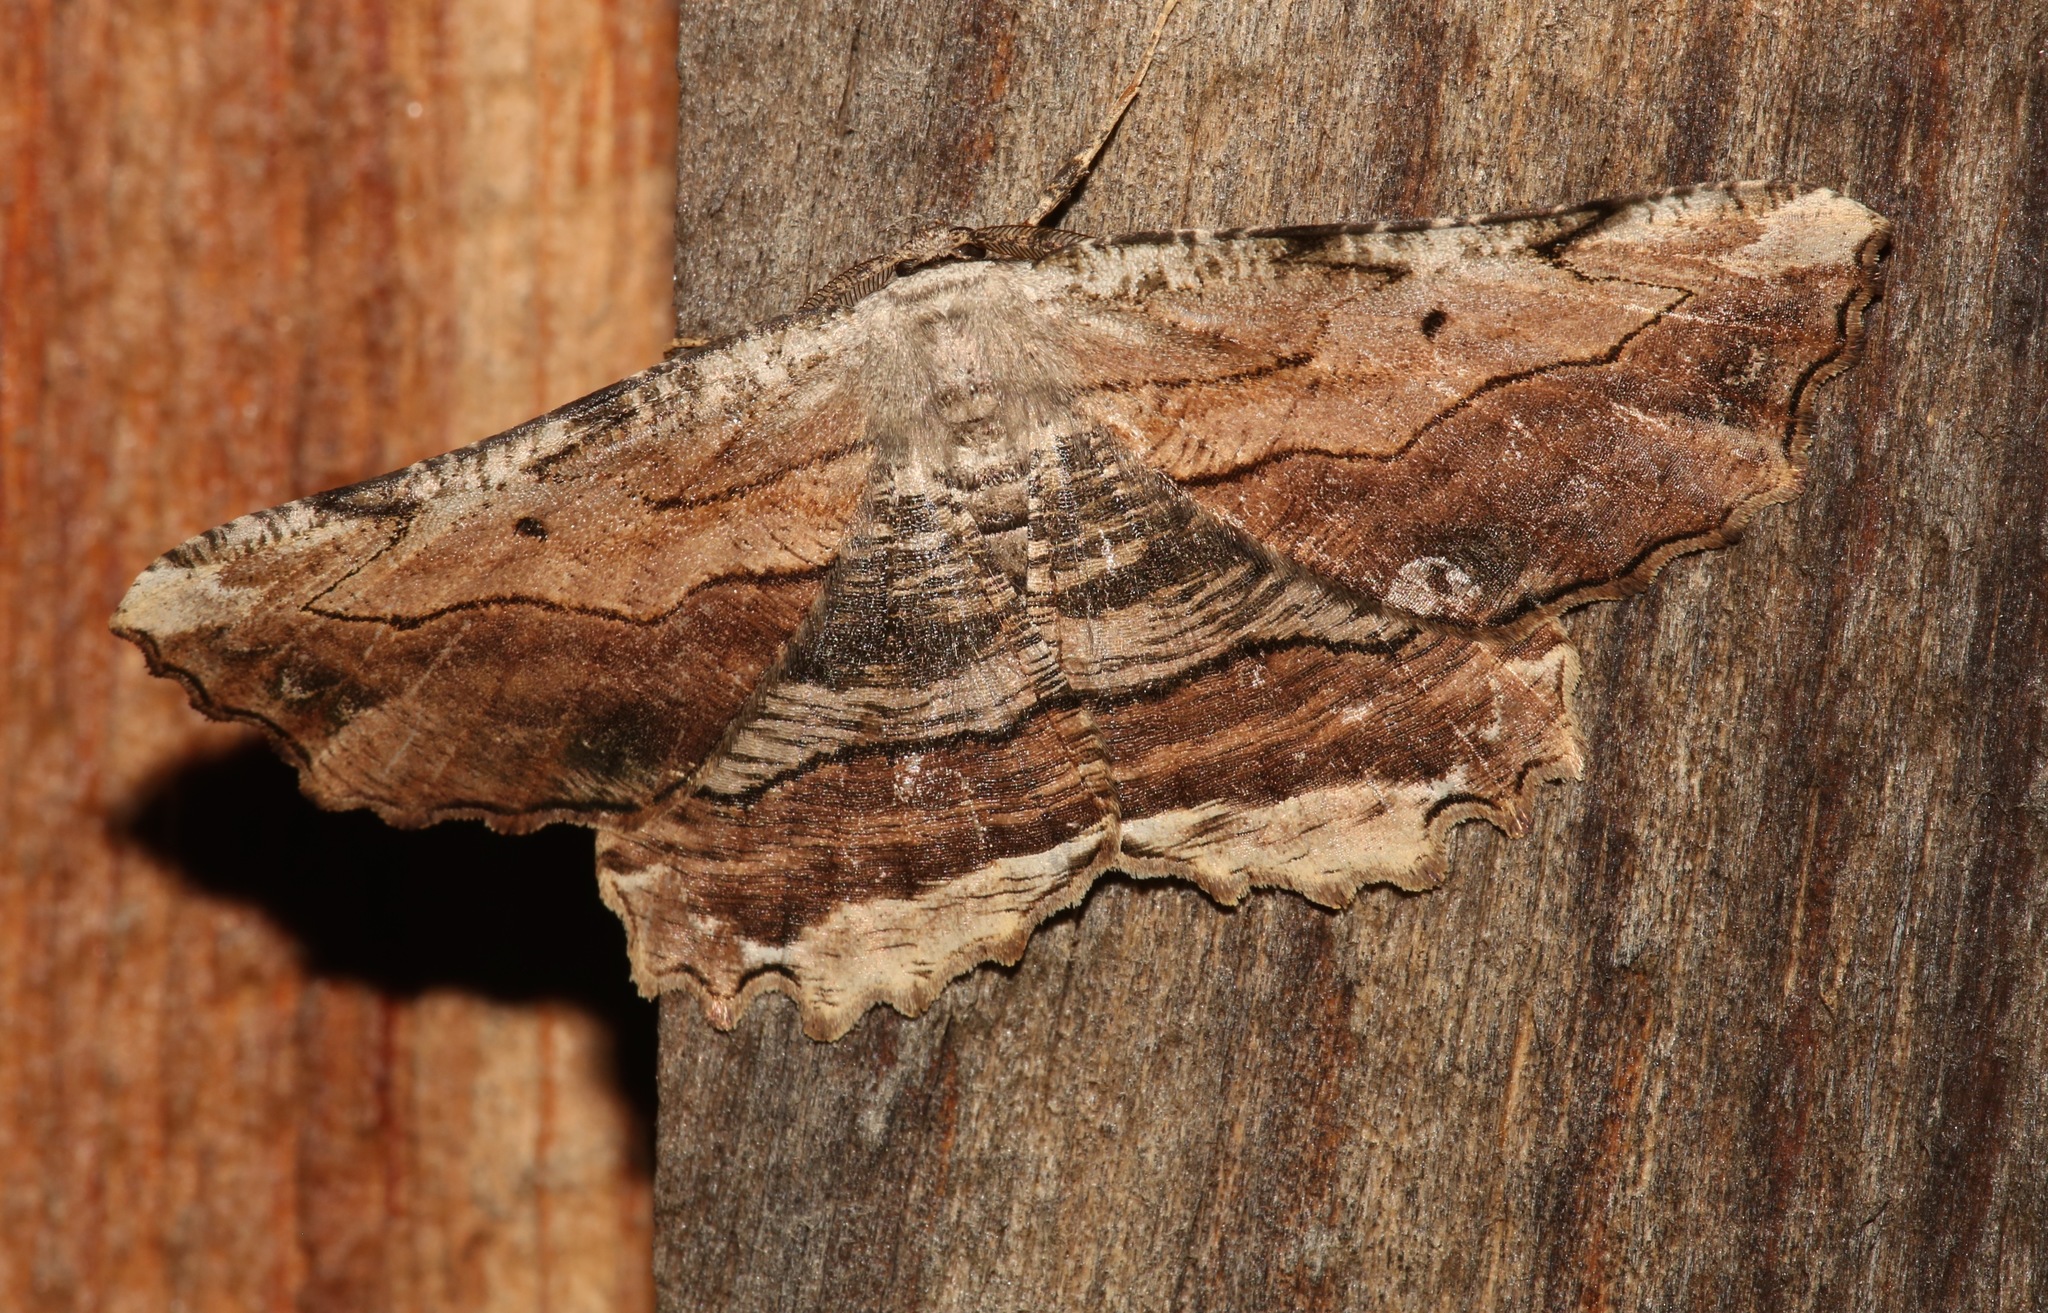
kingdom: Animalia
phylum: Arthropoda
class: Insecta
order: Lepidoptera
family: Geometridae
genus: Lytrosis
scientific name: Lytrosis unitaria
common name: Common lytrosis
